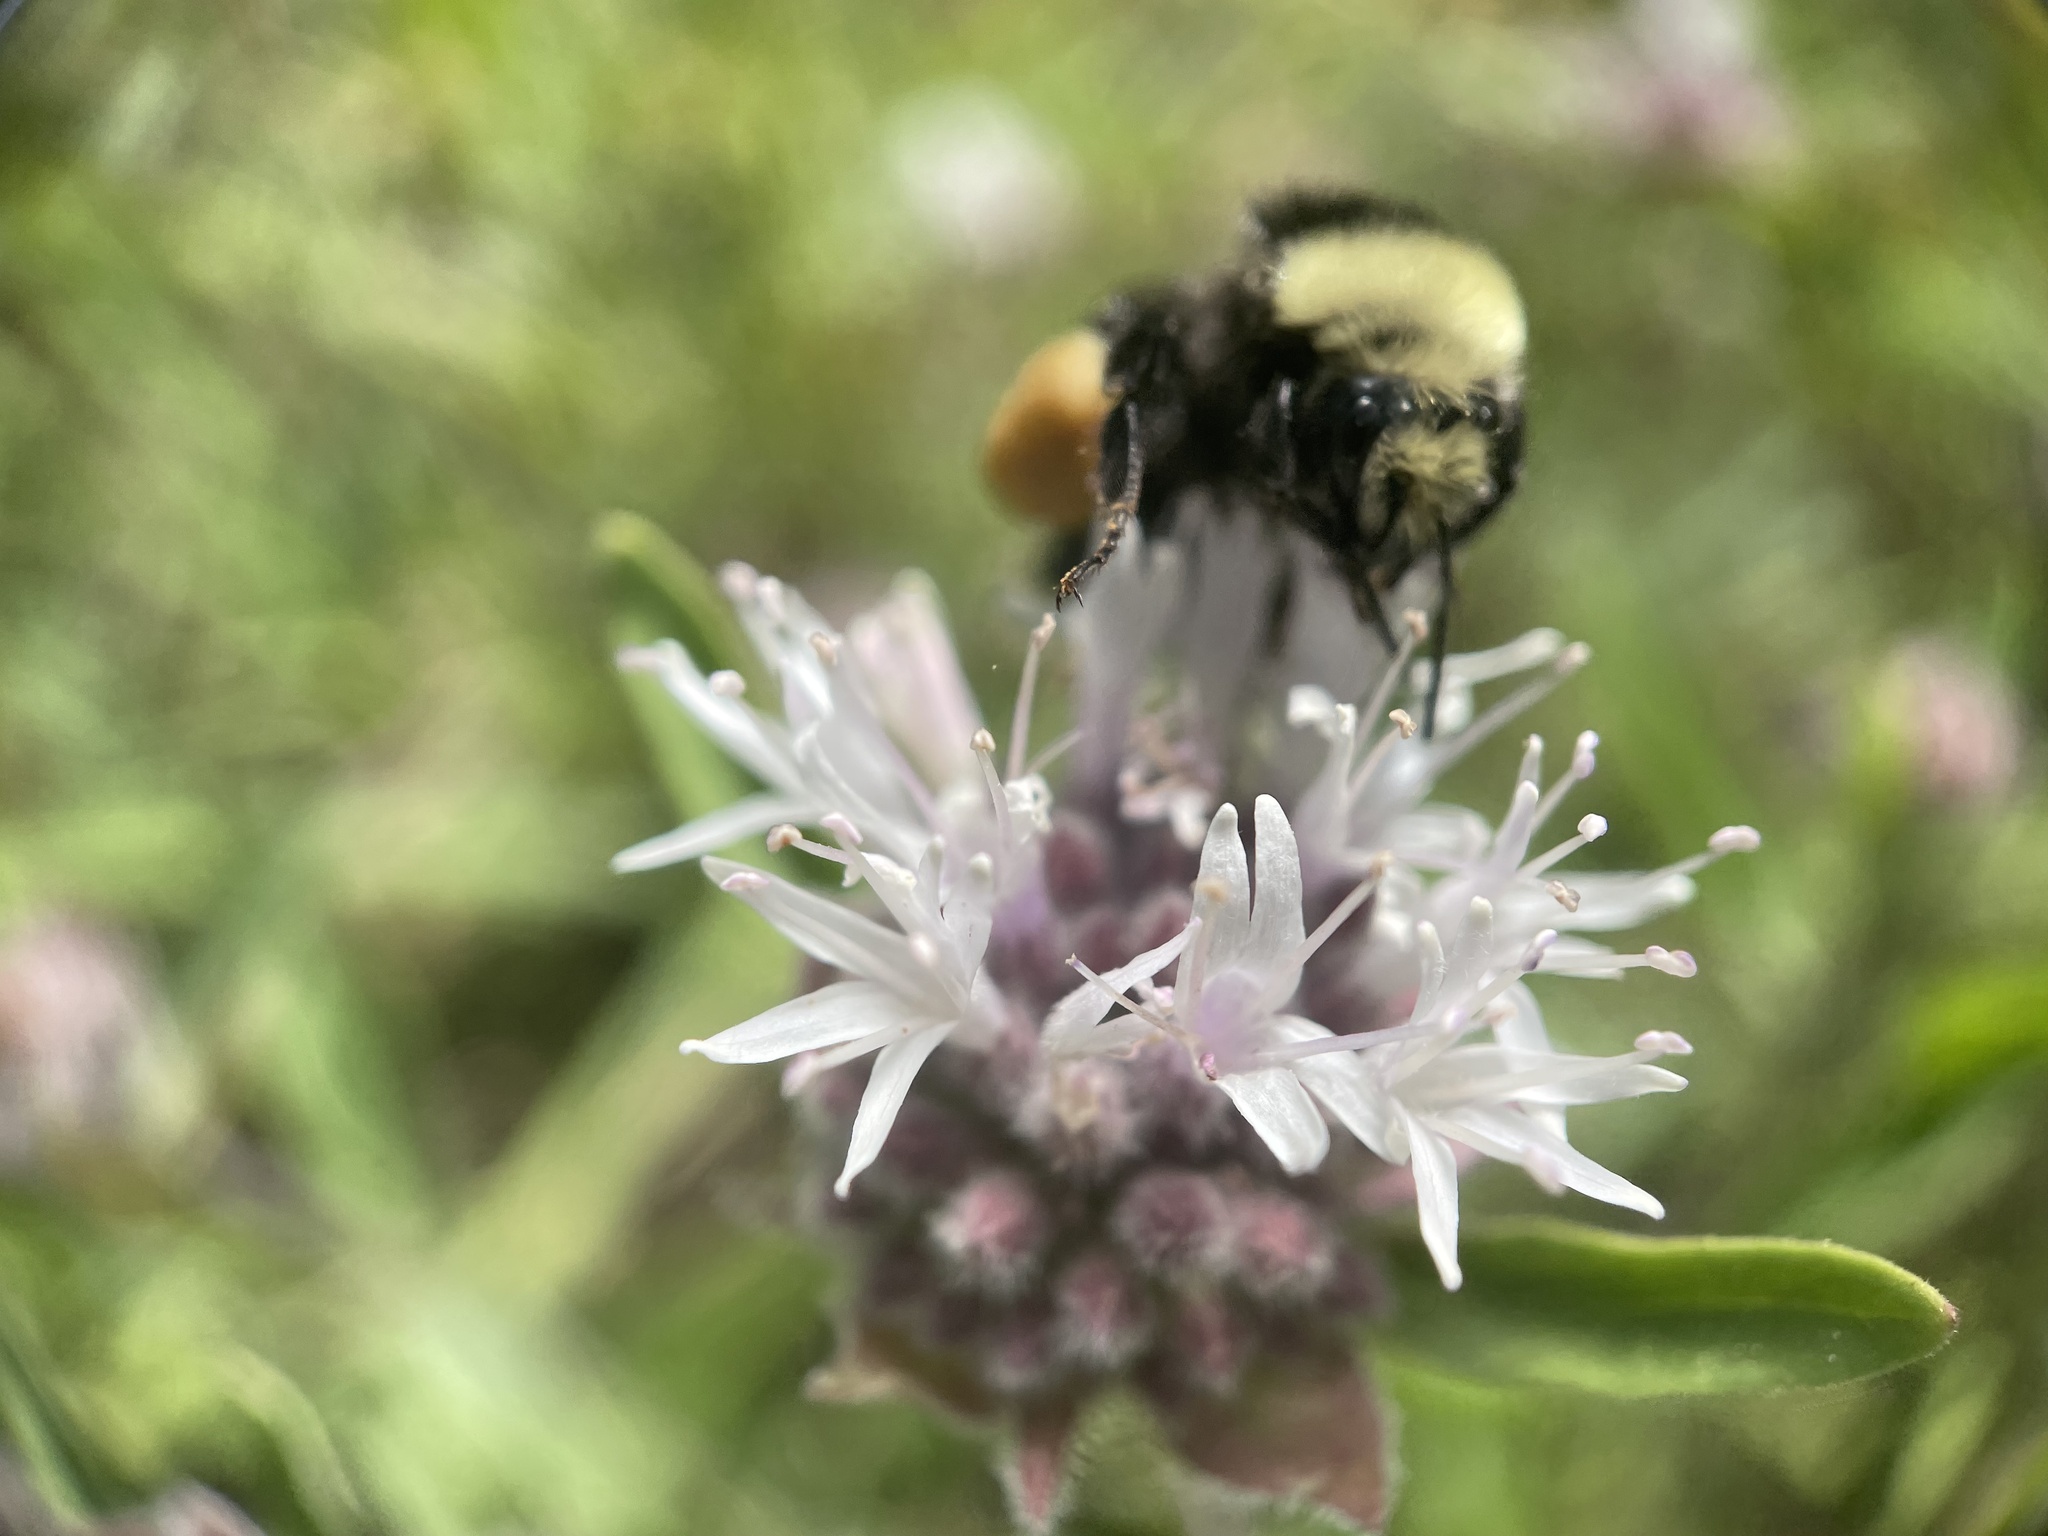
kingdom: Animalia
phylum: Arthropoda
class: Insecta
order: Hymenoptera
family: Apidae
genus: Bombus
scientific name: Bombus vosnesenskii
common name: Vosnesensky bumble bee
